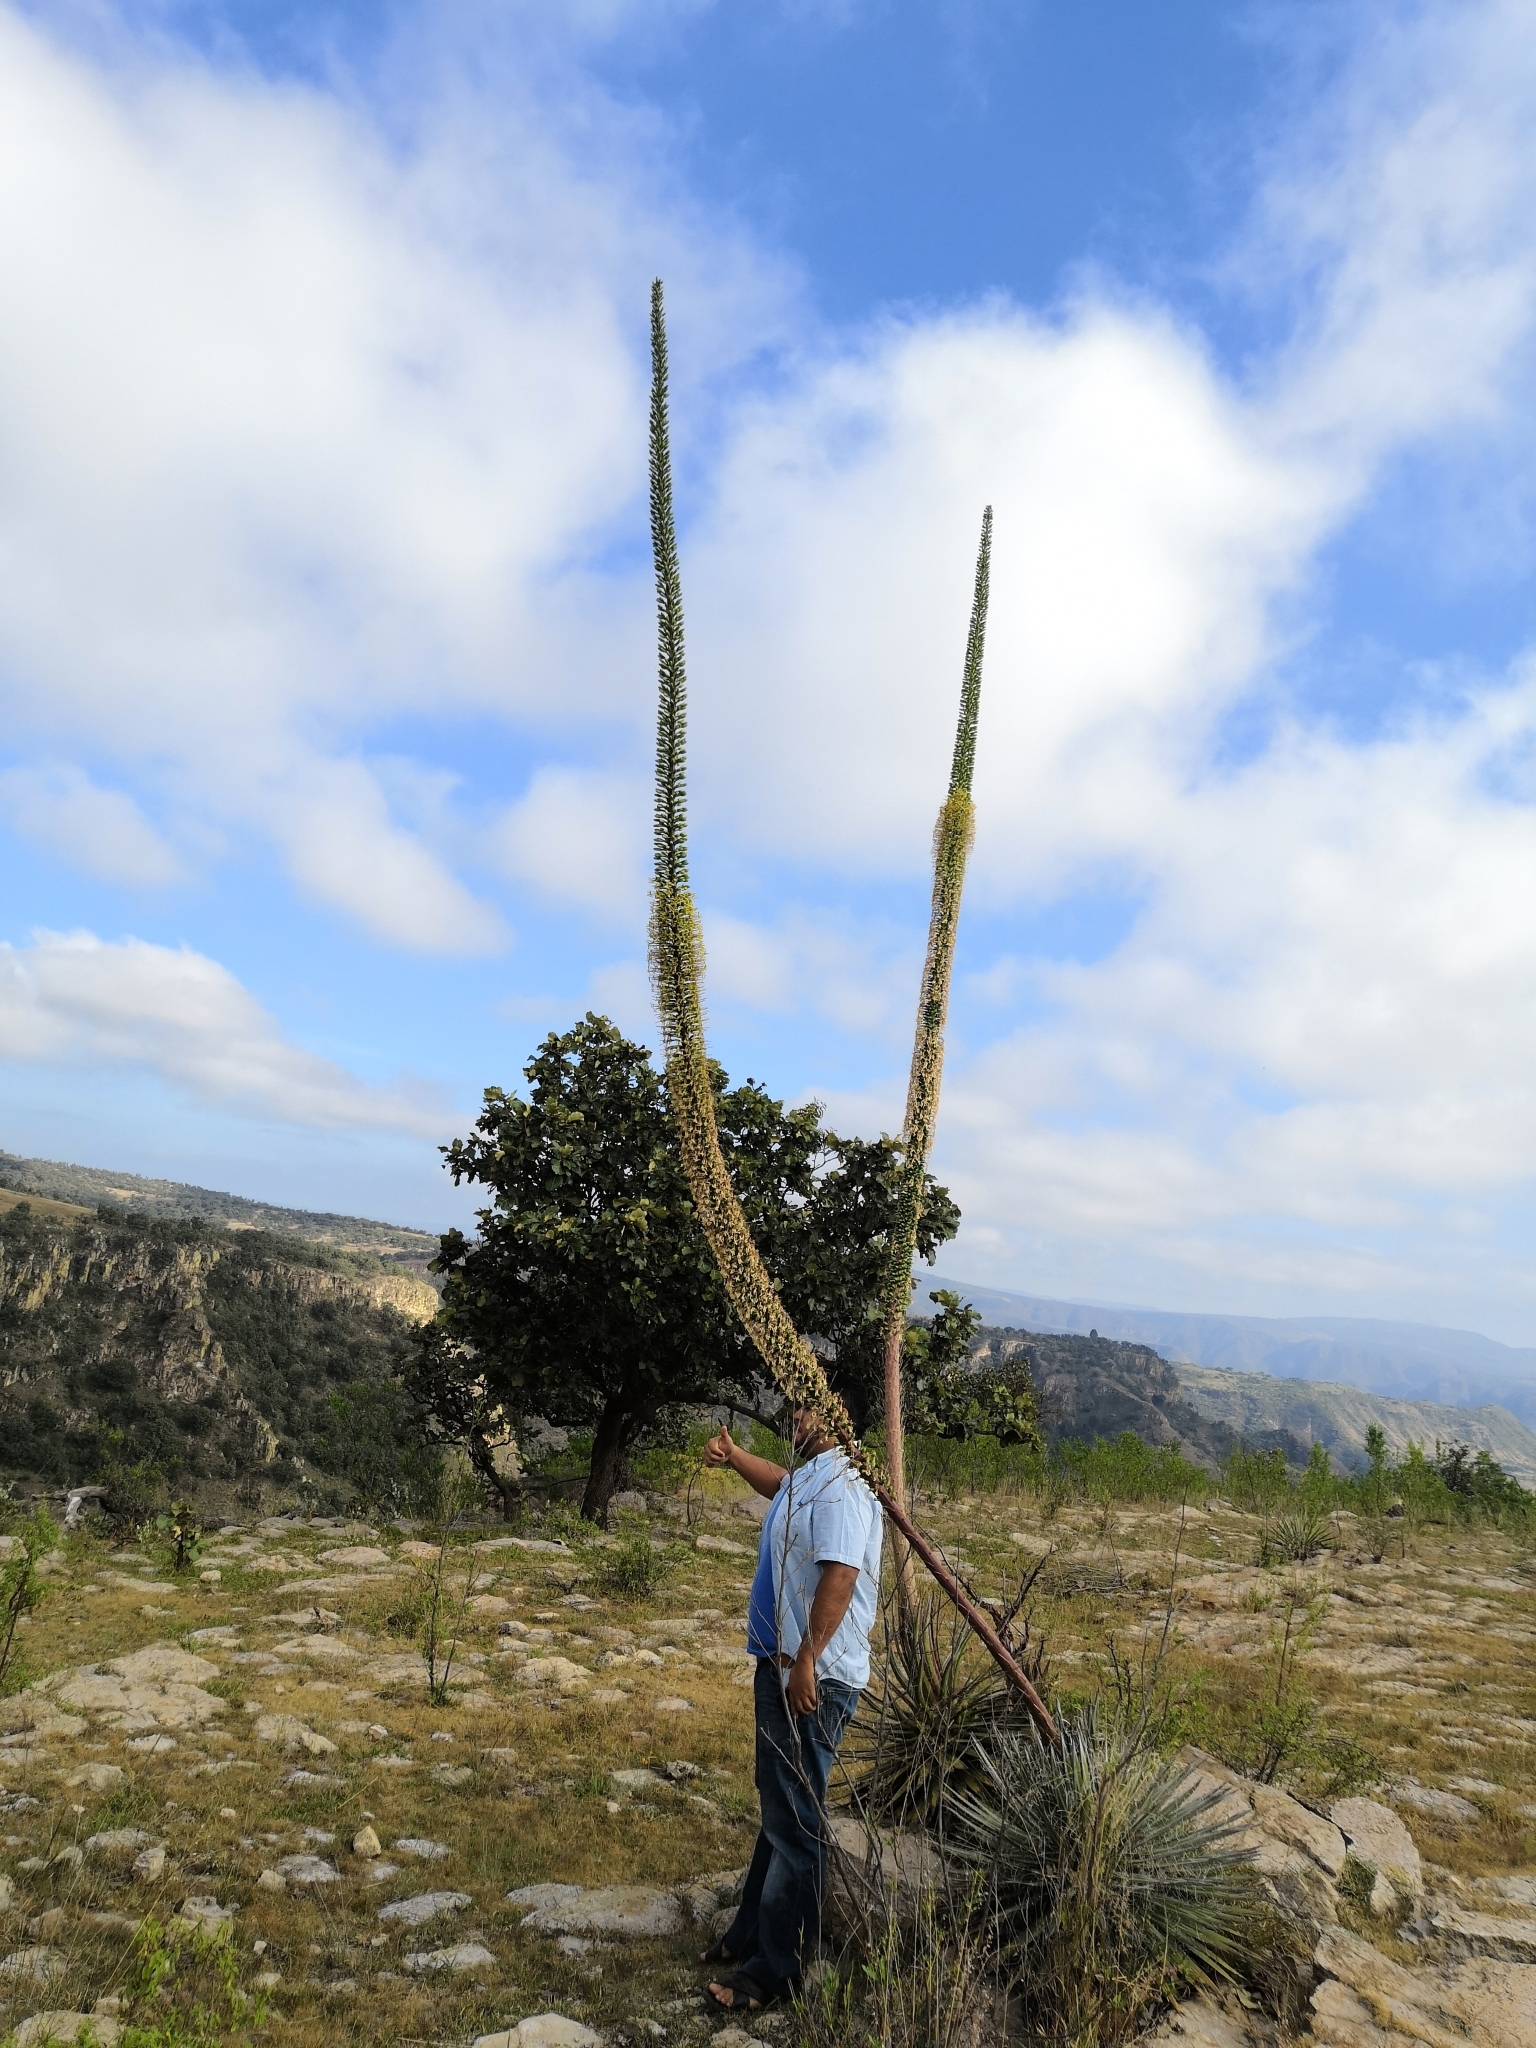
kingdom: Plantae
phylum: Tracheophyta
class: Liliopsida
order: Asparagales
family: Asparagaceae
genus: Agave
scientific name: Agave schidigera
